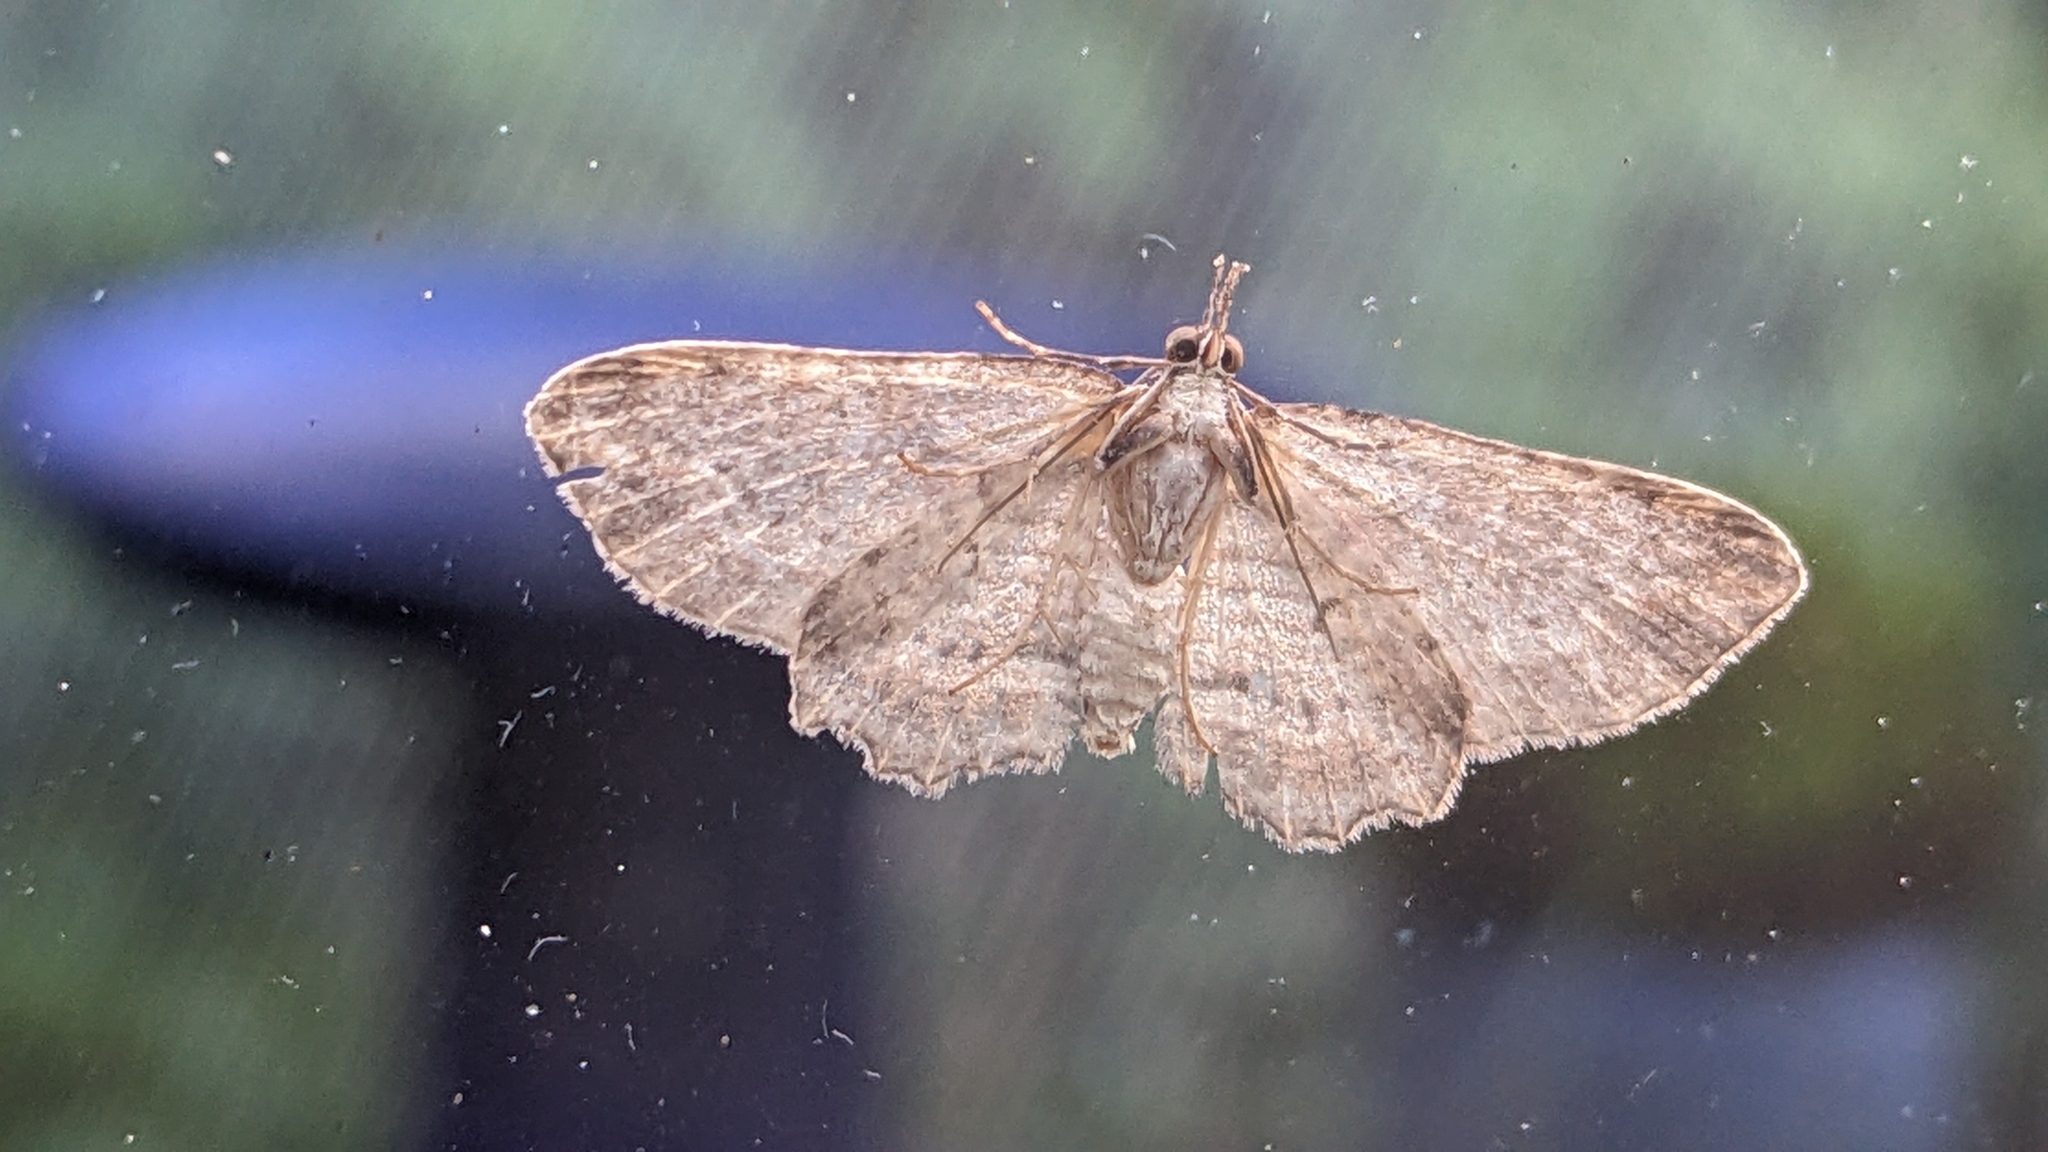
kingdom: Animalia
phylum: Arthropoda
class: Insecta
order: Lepidoptera
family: Geometridae
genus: Chloroclystis
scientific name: Chloroclystis filata
